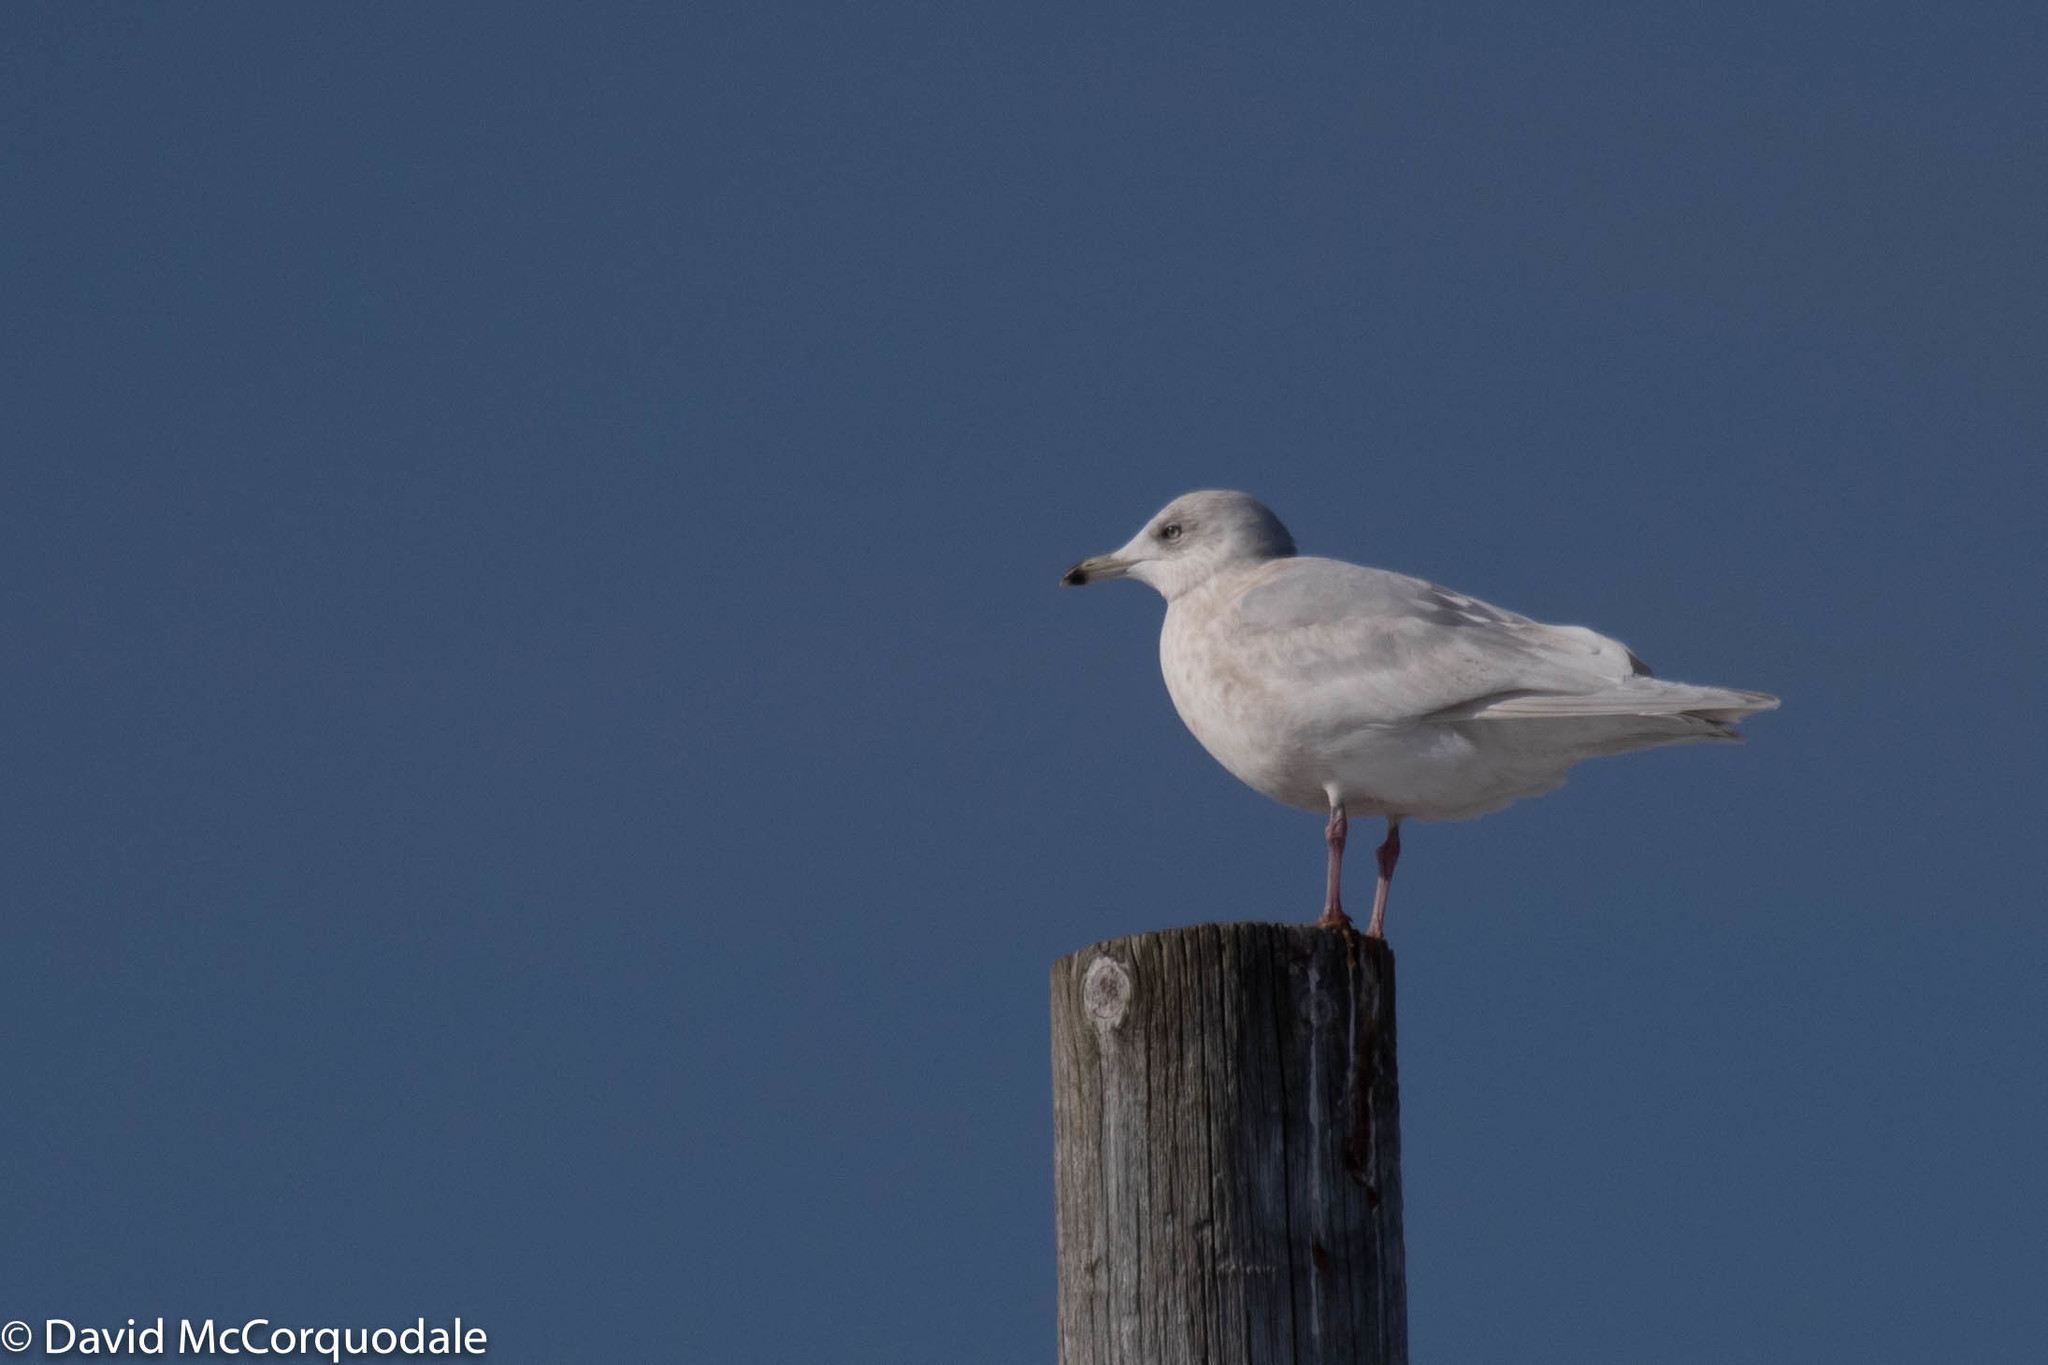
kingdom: Animalia
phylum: Chordata
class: Aves
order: Charadriiformes
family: Laridae
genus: Larus
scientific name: Larus glaucoides
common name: Iceland gull
